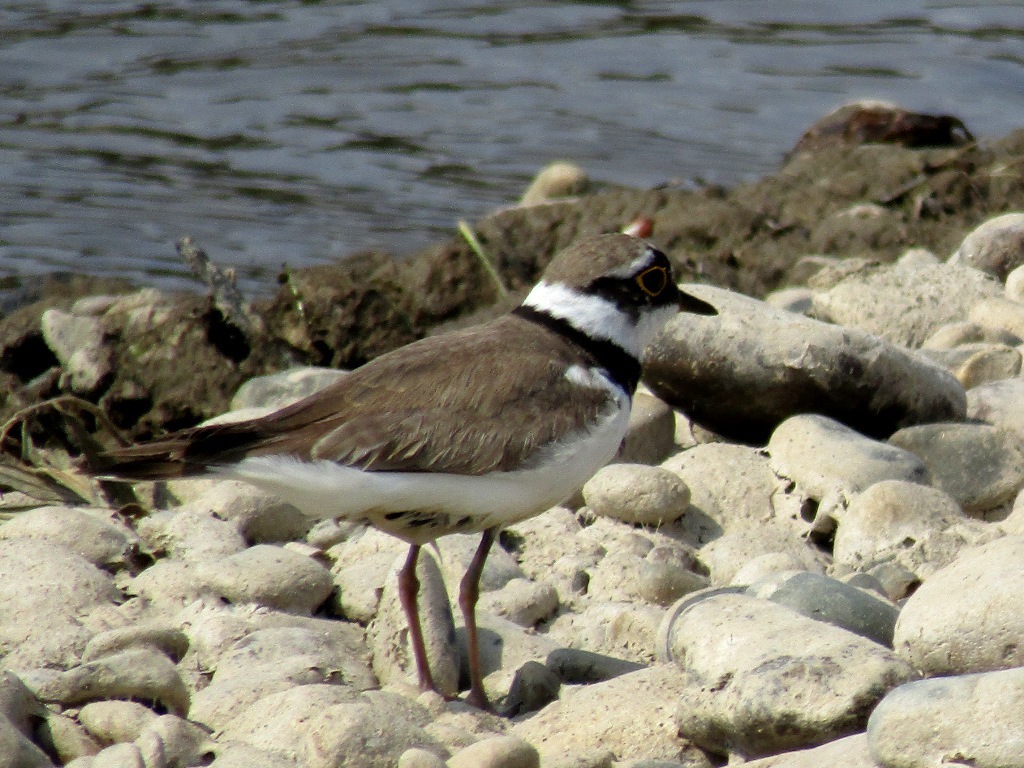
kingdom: Animalia
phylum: Chordata
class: Aves
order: Charadriiformes
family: Charadriidae
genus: Charadrius
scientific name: Charadrius dubius
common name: Little ringed plover
